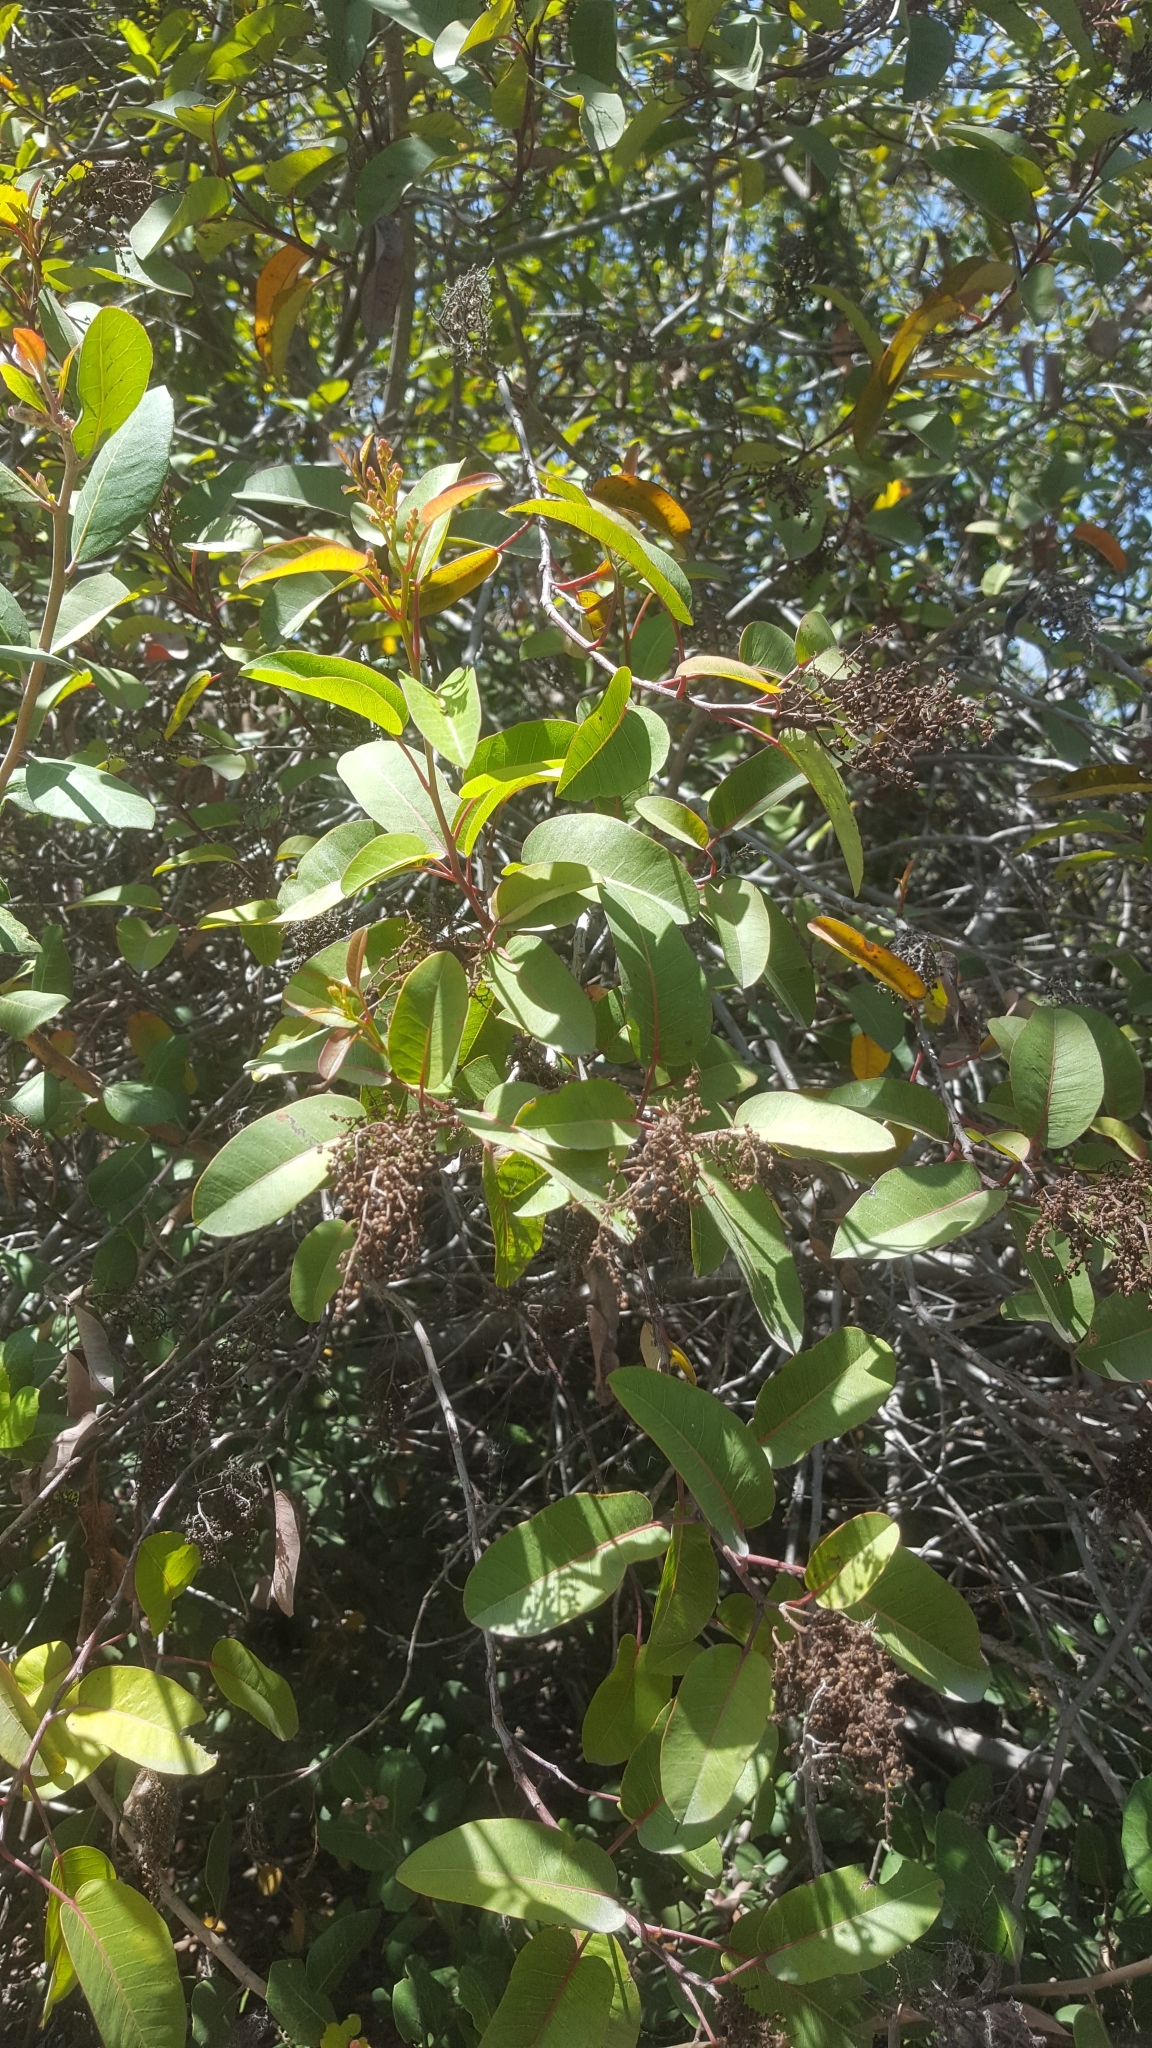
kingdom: Plantae
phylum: Tracheophyta
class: Magnoliopsida
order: Sapindales
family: Anacardiaceae
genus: Malosma
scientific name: Malosma laurina
